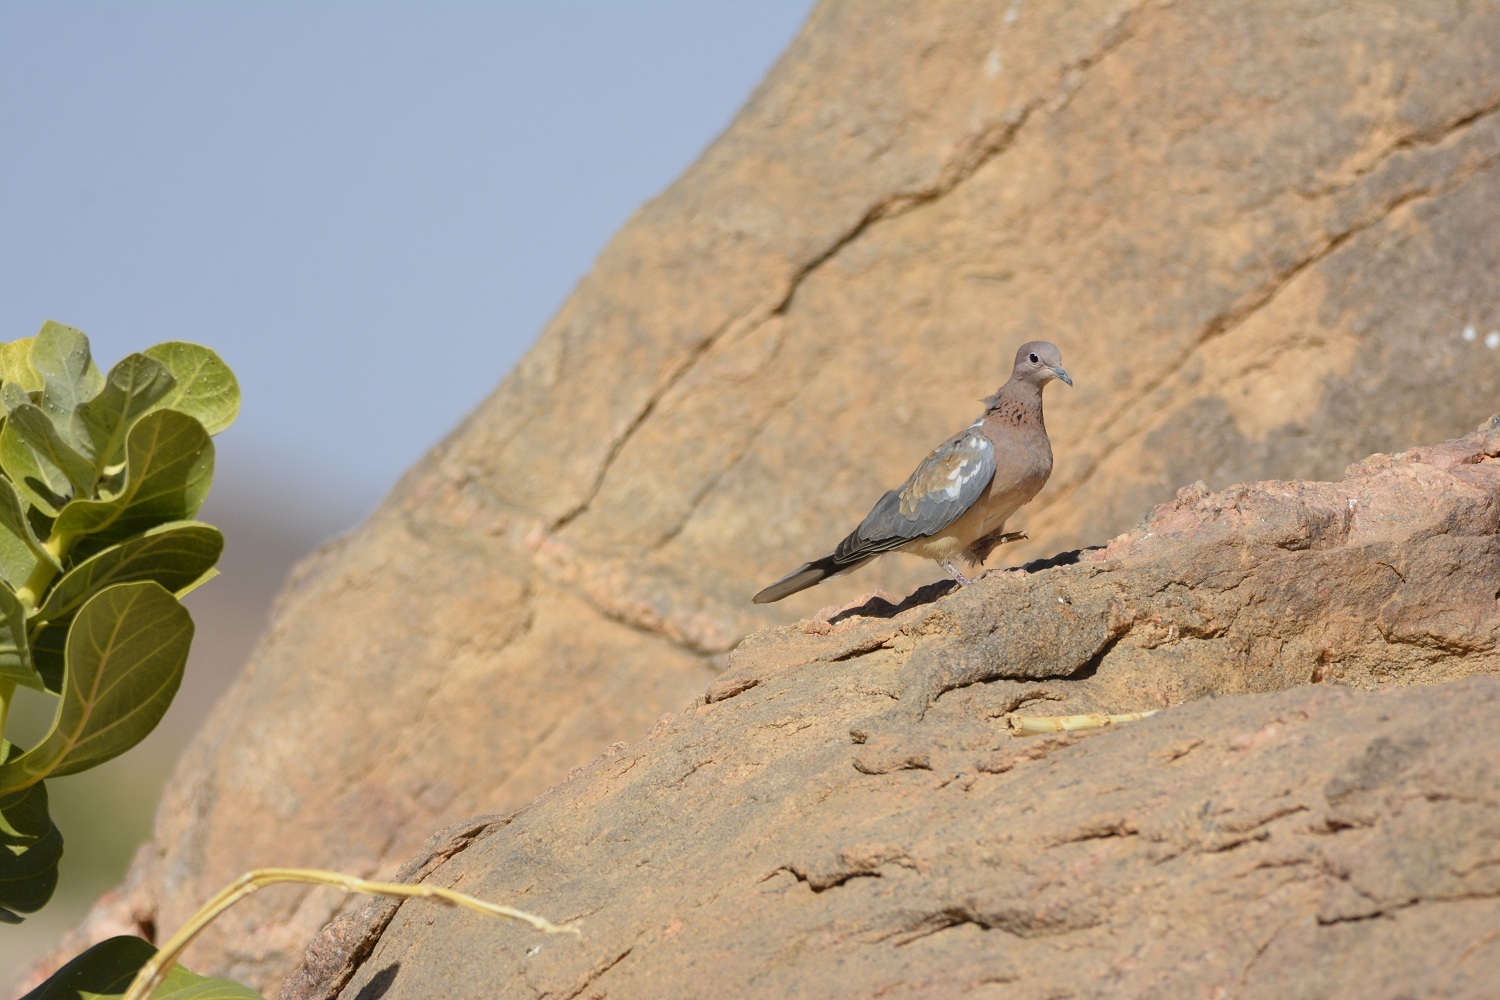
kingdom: Animalia
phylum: Chordata
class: Aves
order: Columbiformes
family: Columbidae
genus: Spilopelia
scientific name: Spilopelia senegalensis
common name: Laughing dove
